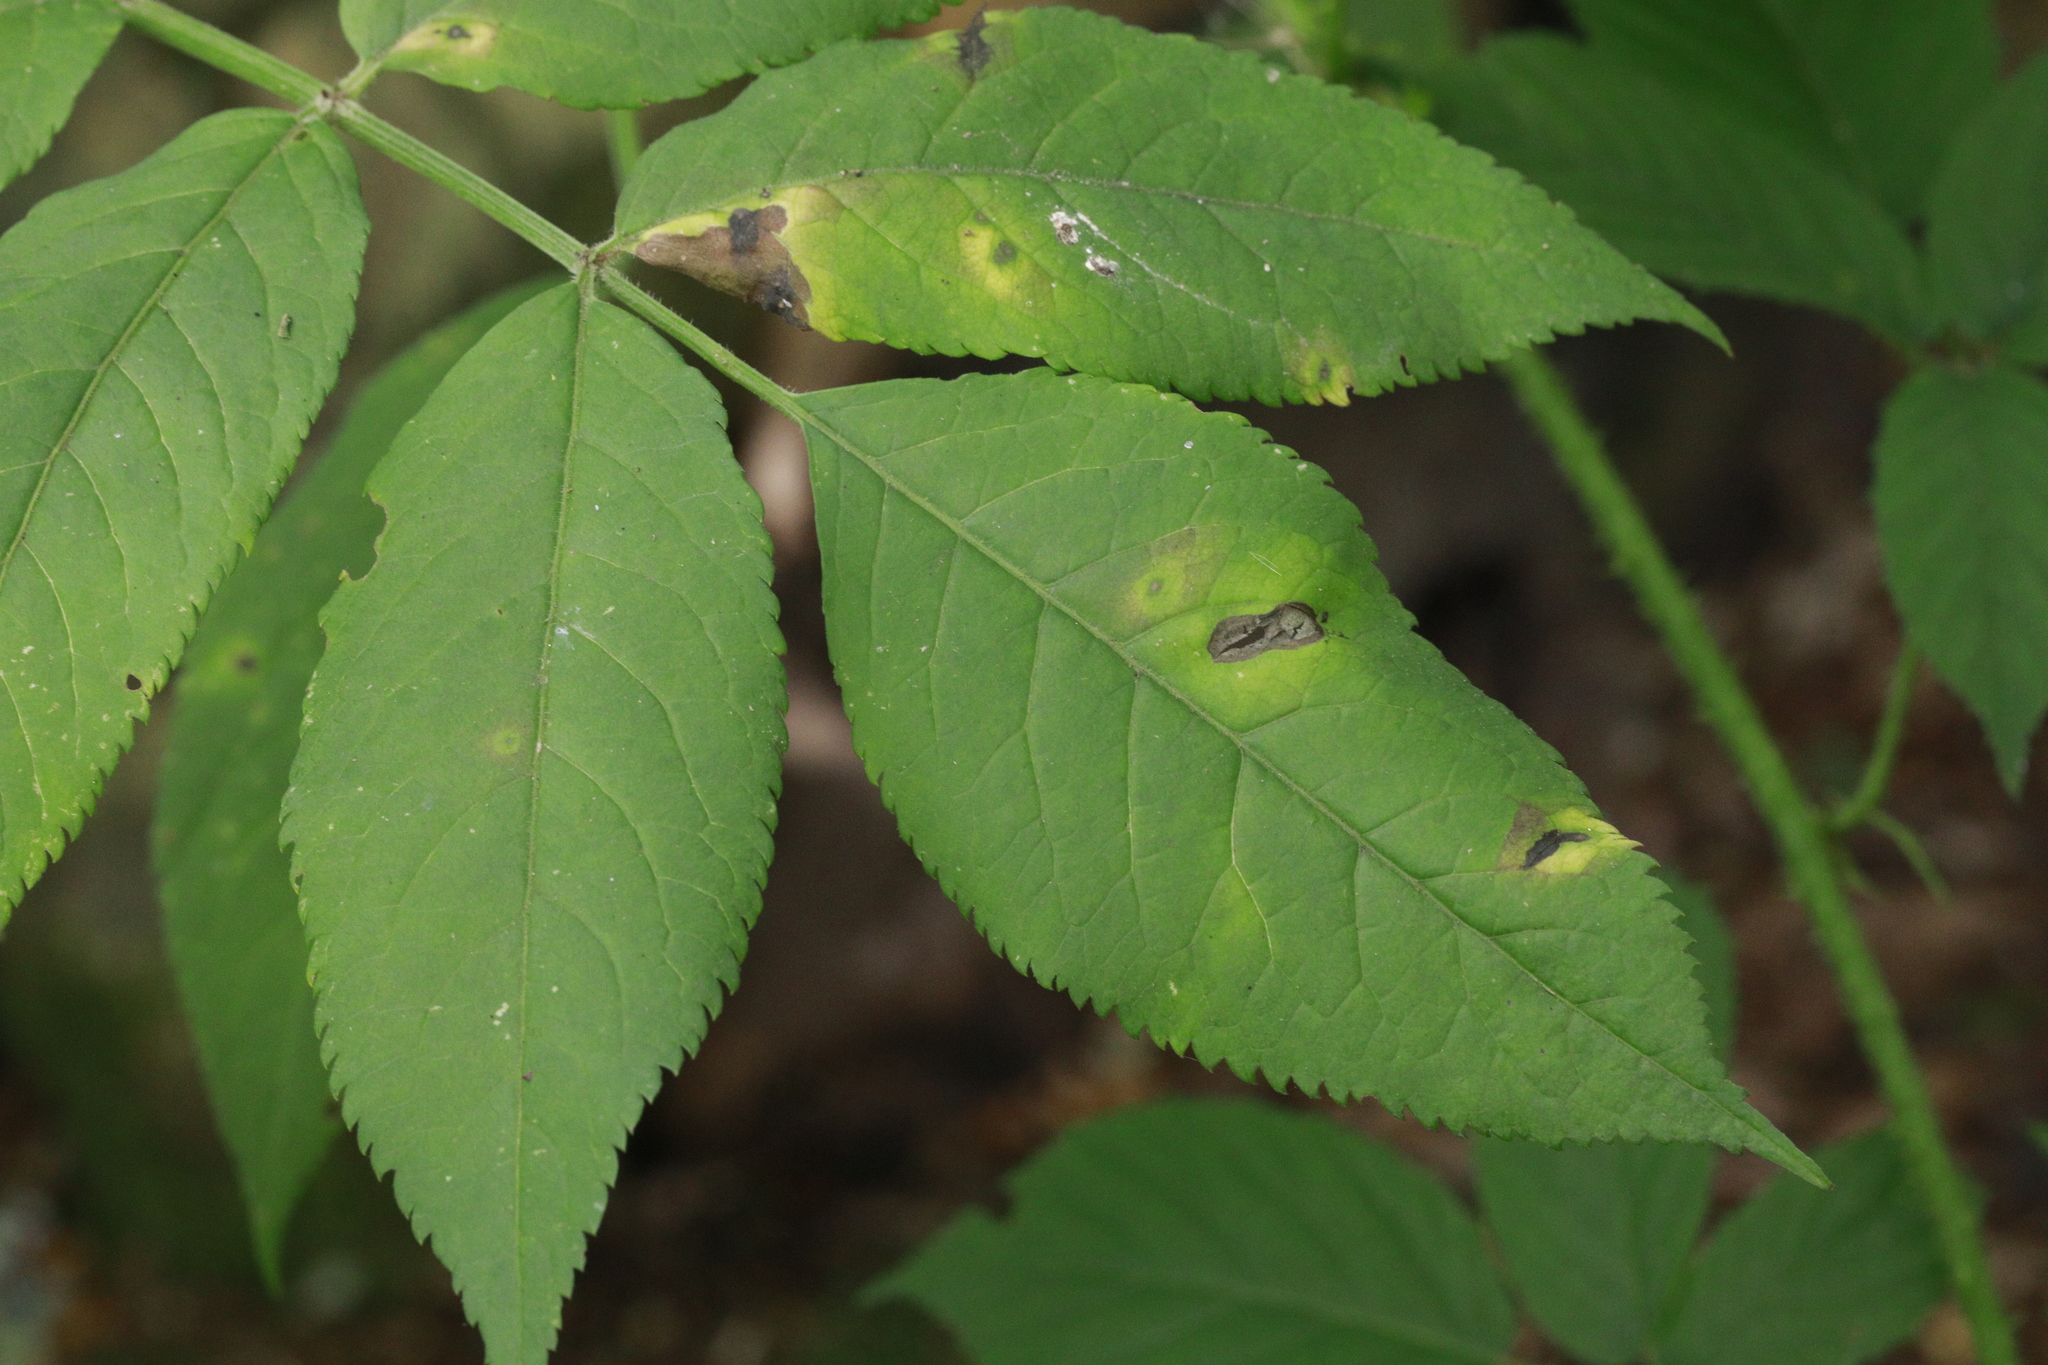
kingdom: Plantae
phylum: Tracheophyta
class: Magnoliopsida
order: Dipsacales
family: Viburnaceae
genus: Sambucus
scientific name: Sambucus nigra
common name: Elder
